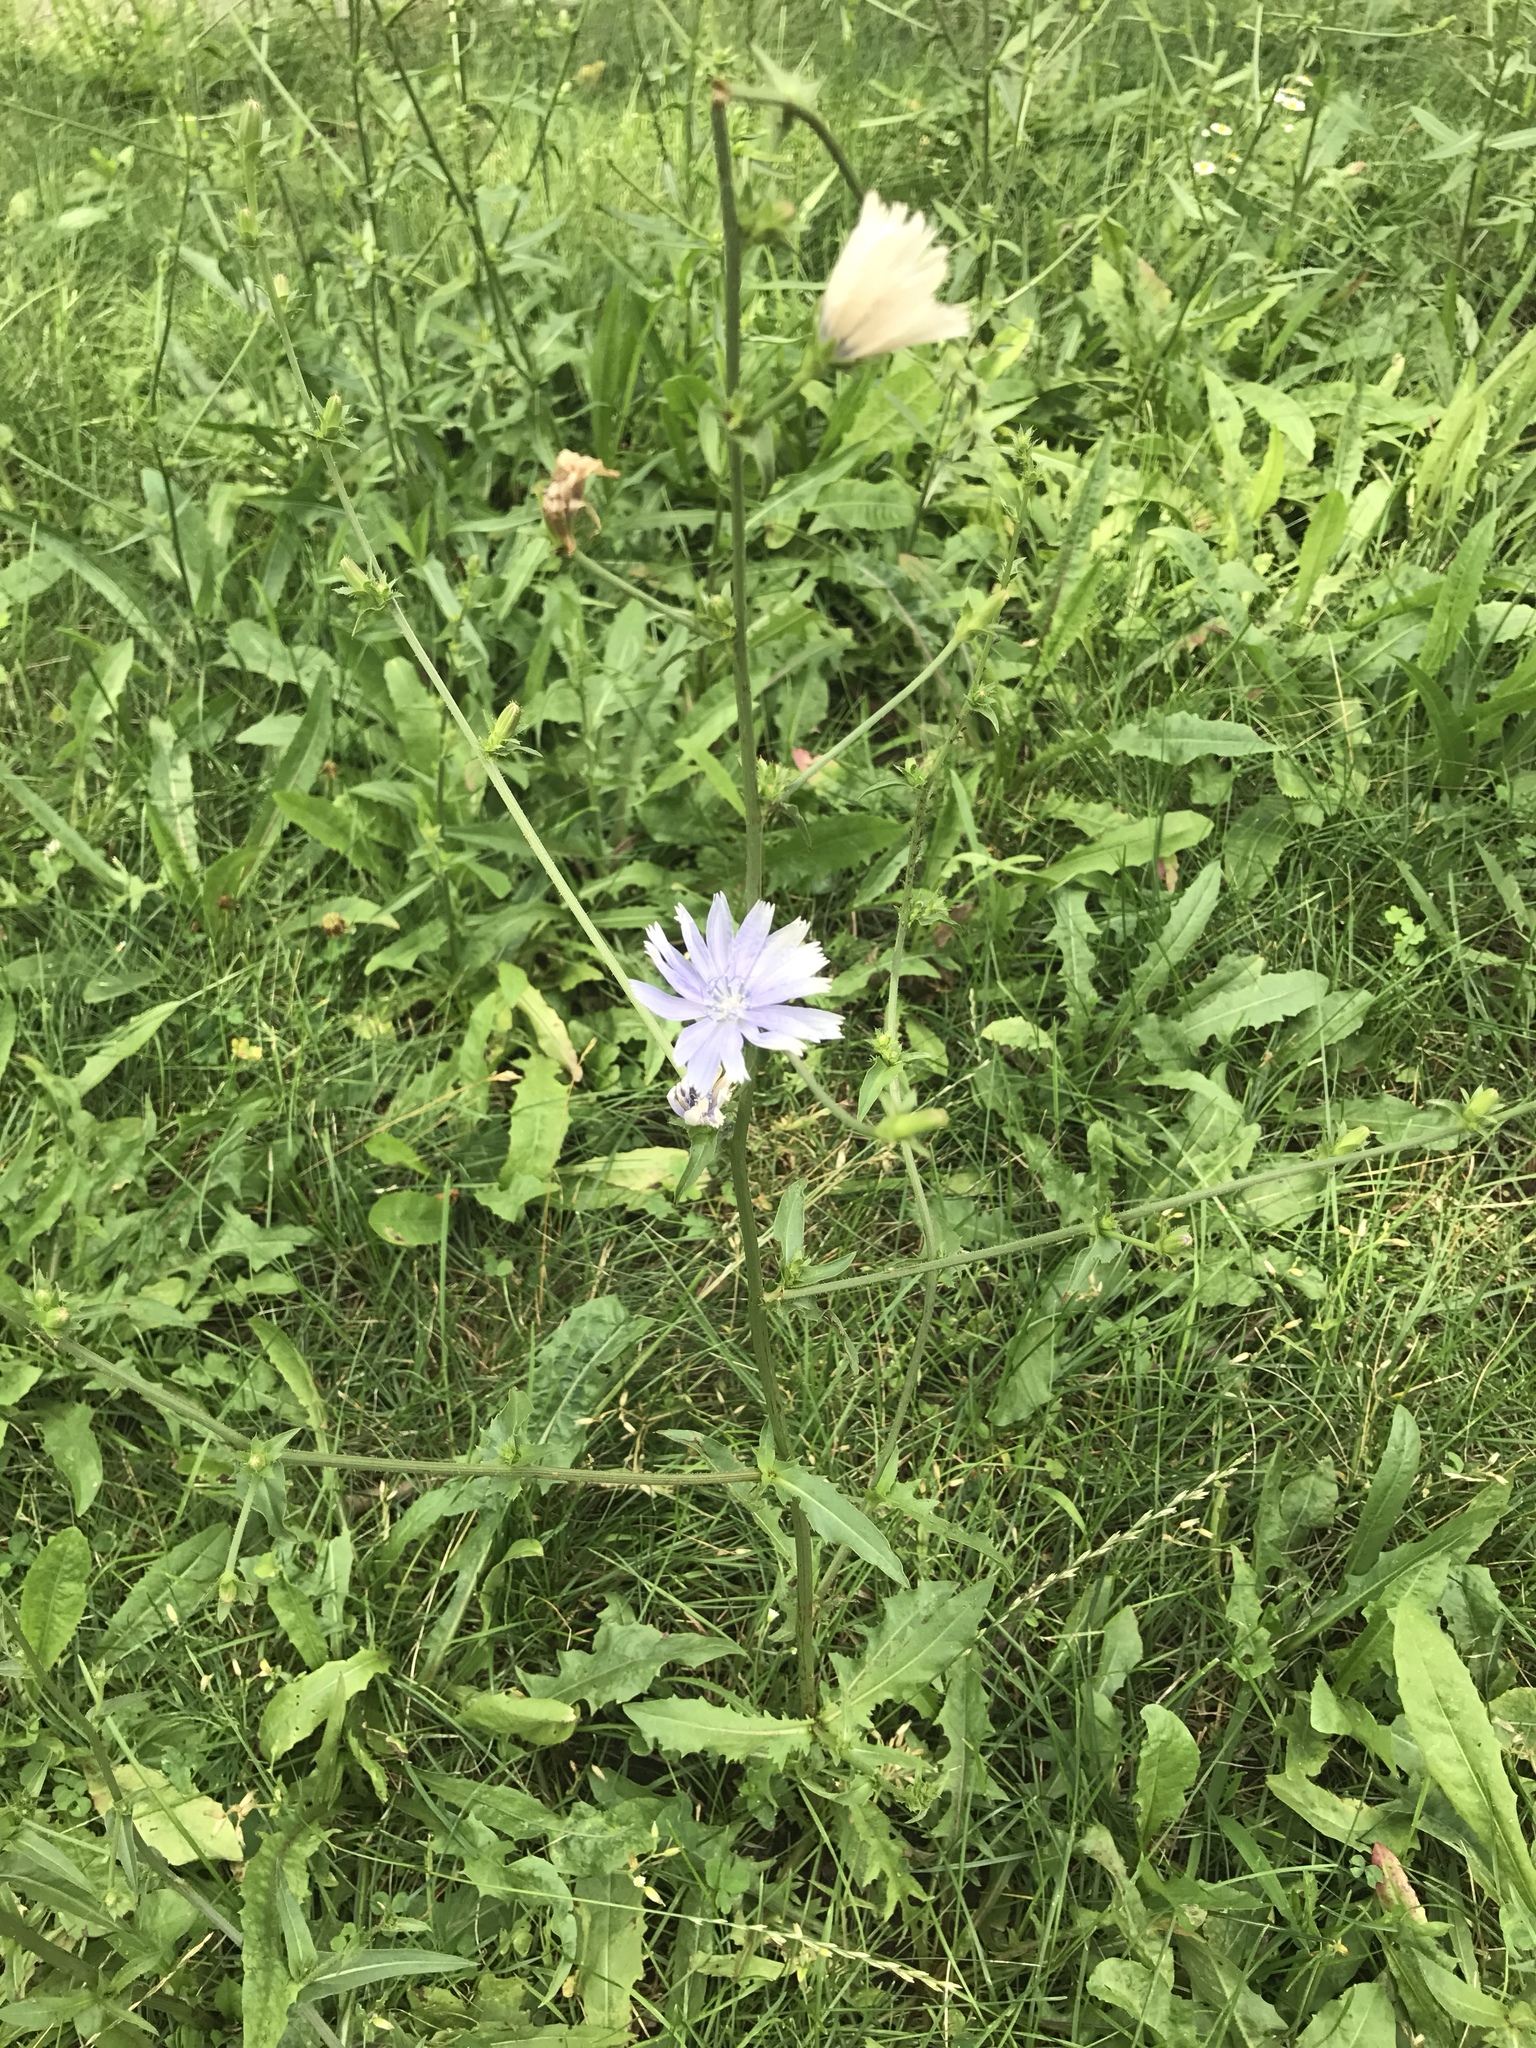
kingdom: Plantae
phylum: Tracheophyta
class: Magnoliopsida
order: Asterales
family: Asteraceae
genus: Cichorium
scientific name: Cichorium intybus
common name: Chicory
